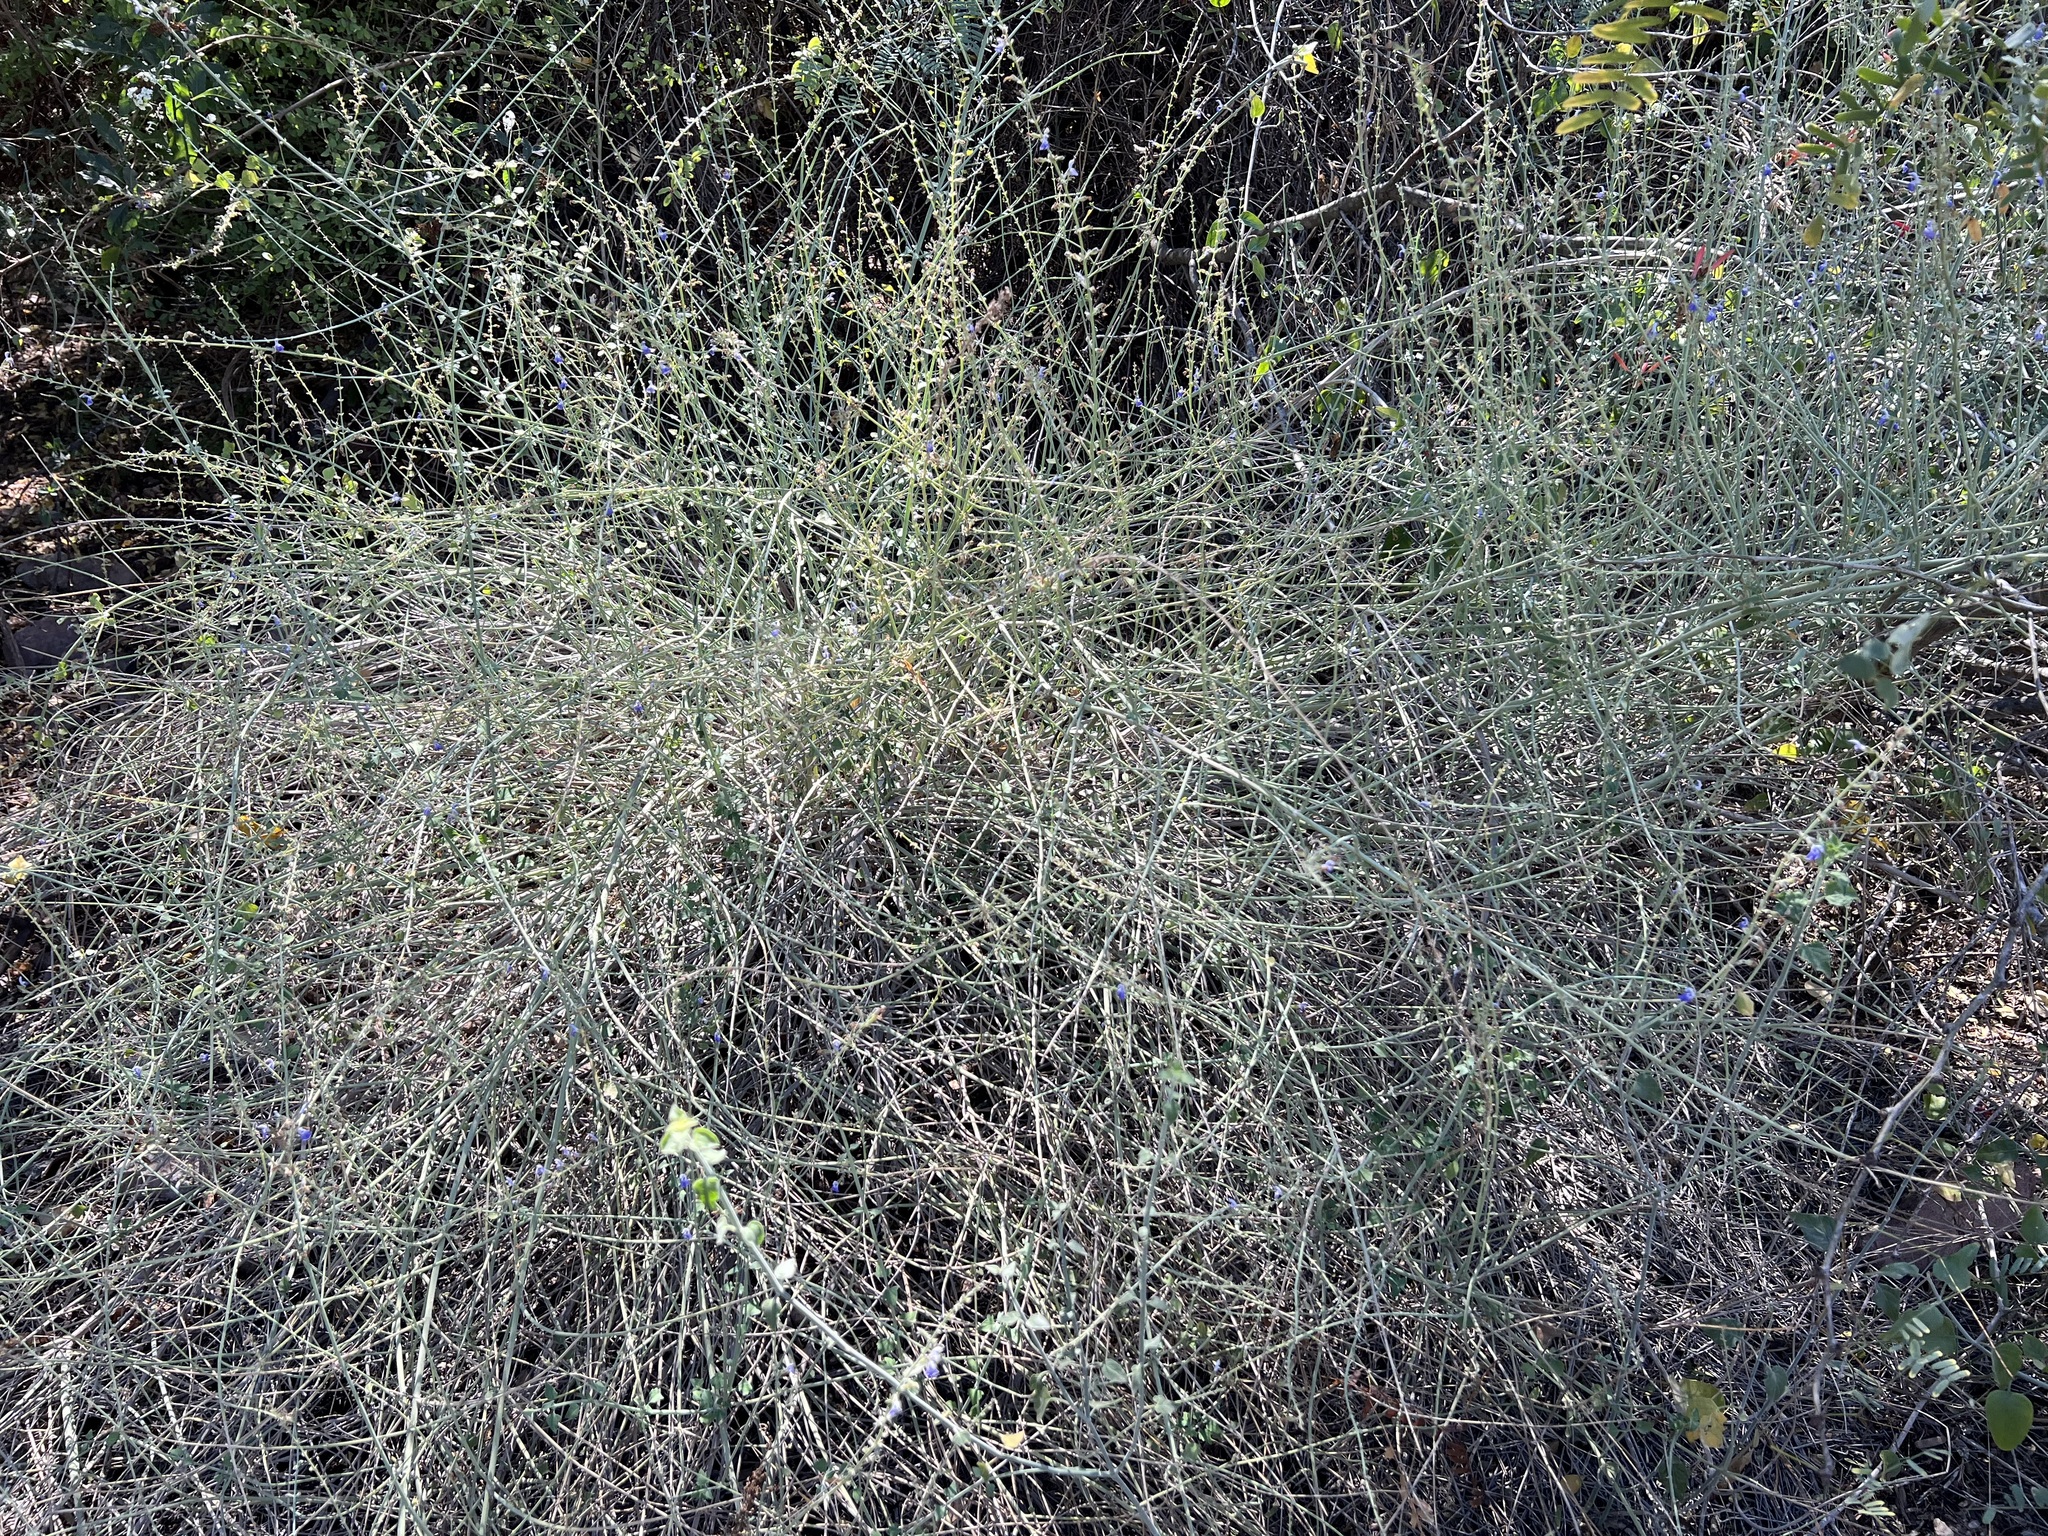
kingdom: Plantae
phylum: Tracheophyta
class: Magnoliopsida
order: Lamiales
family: Lamiaceae
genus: Salvia
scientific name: Salvia palmetorum
